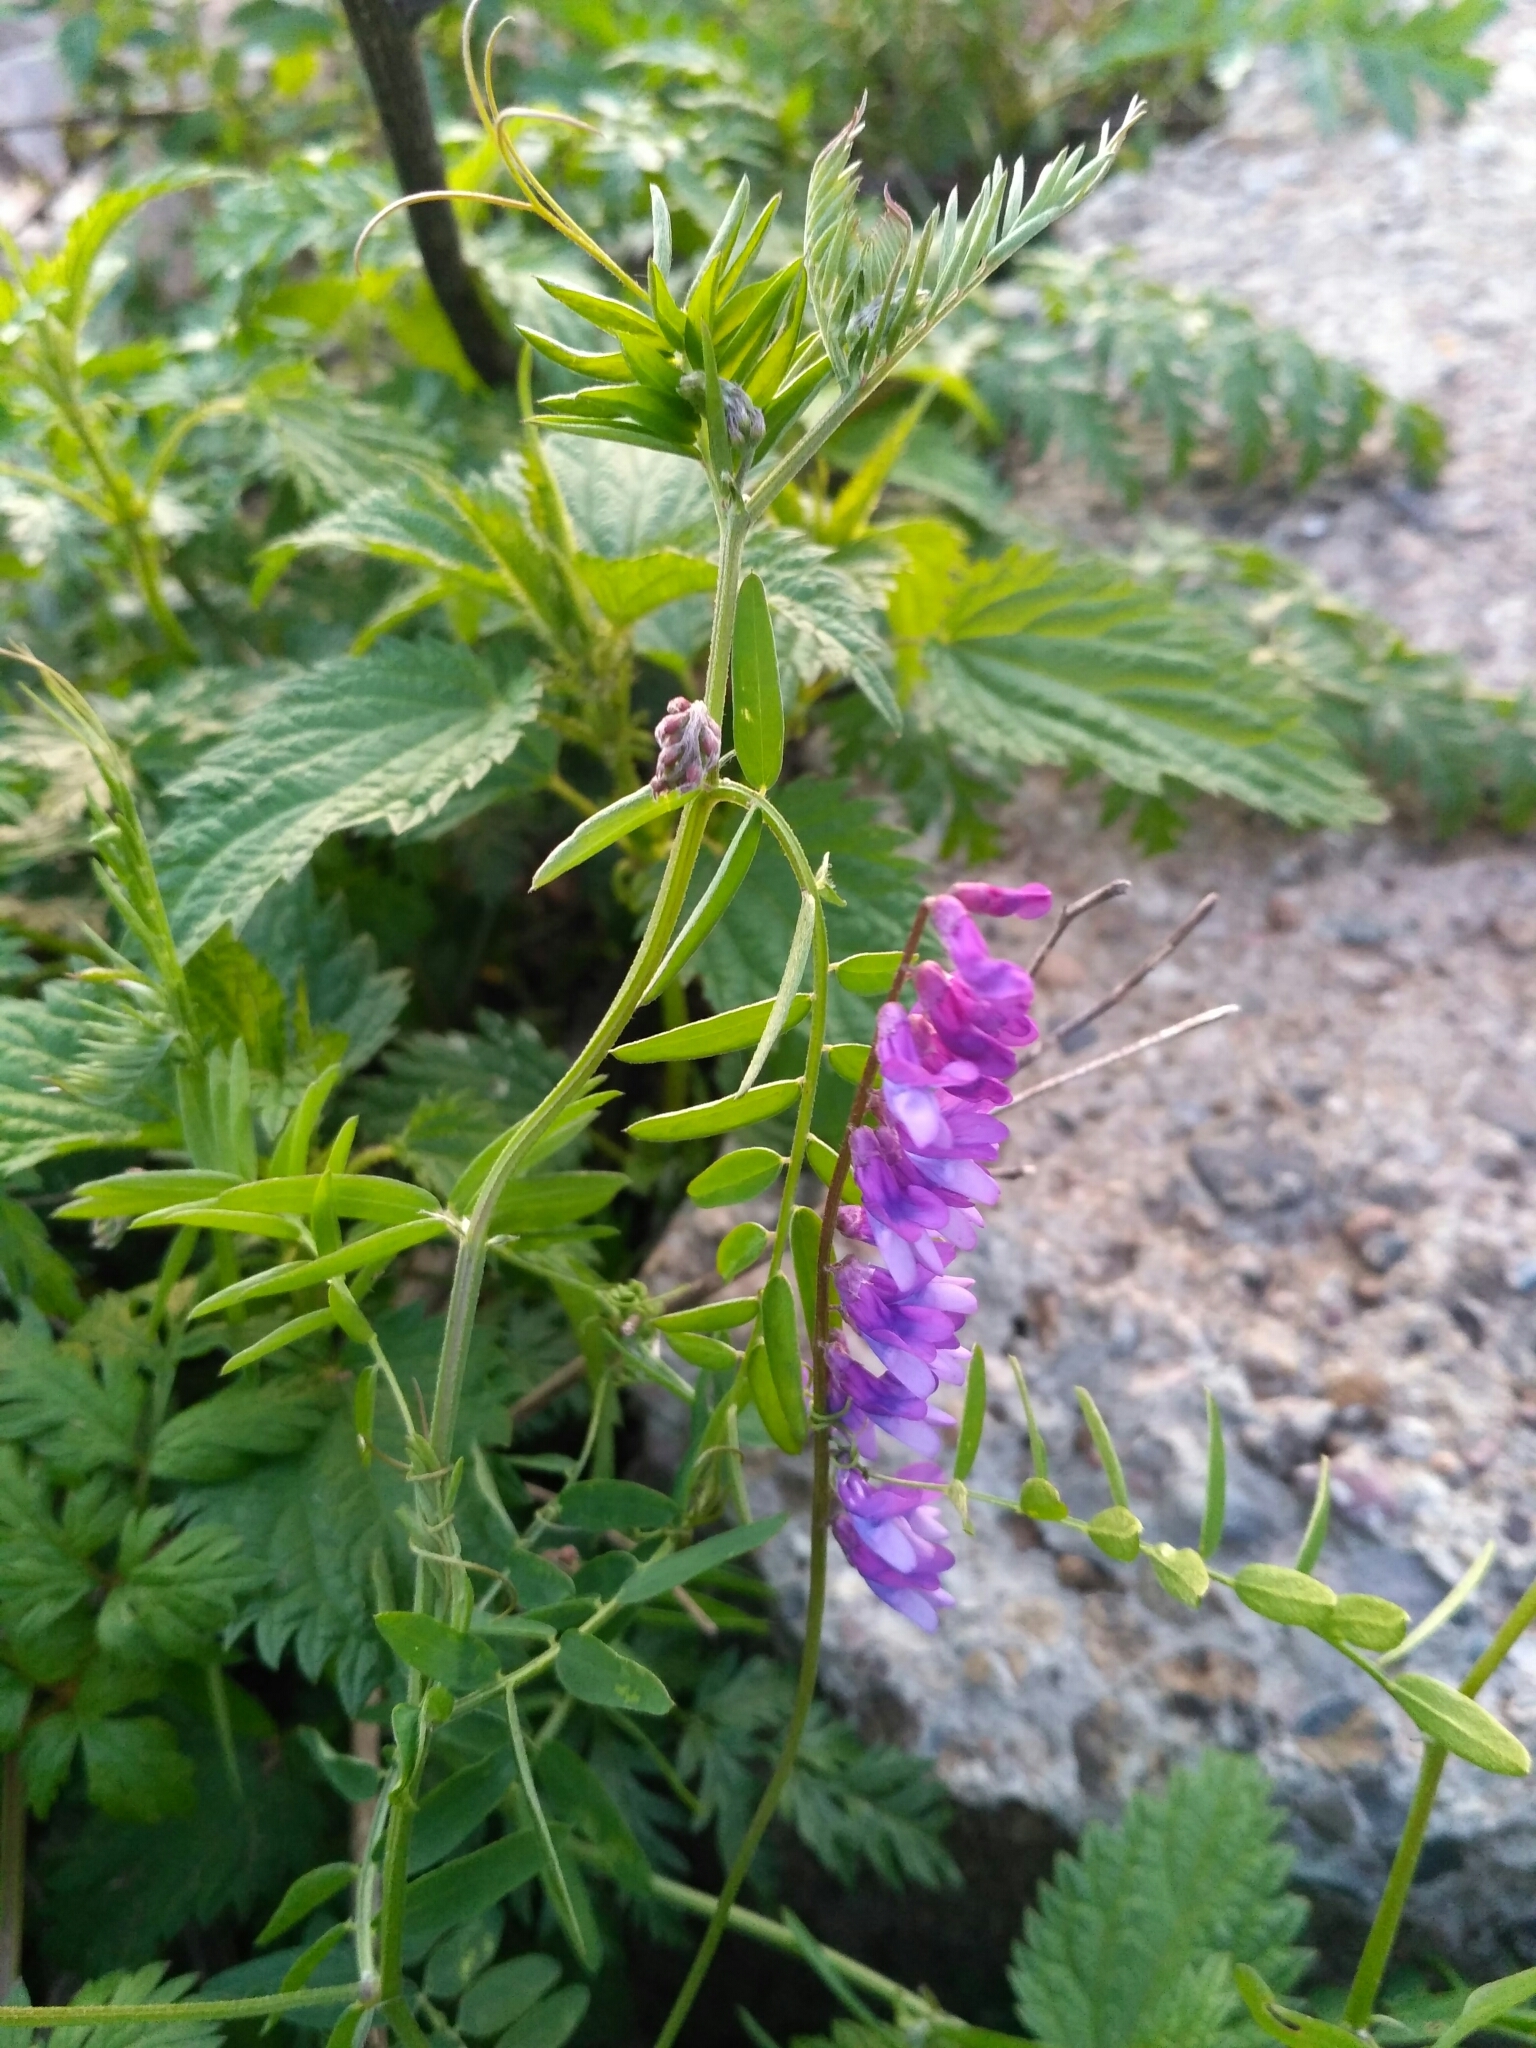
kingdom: Plantae
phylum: Tracheophyta
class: Magnoliopsida
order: Fabales
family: Fabaceae
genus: Vicia
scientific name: Vicia cracca
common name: Bird vetch
